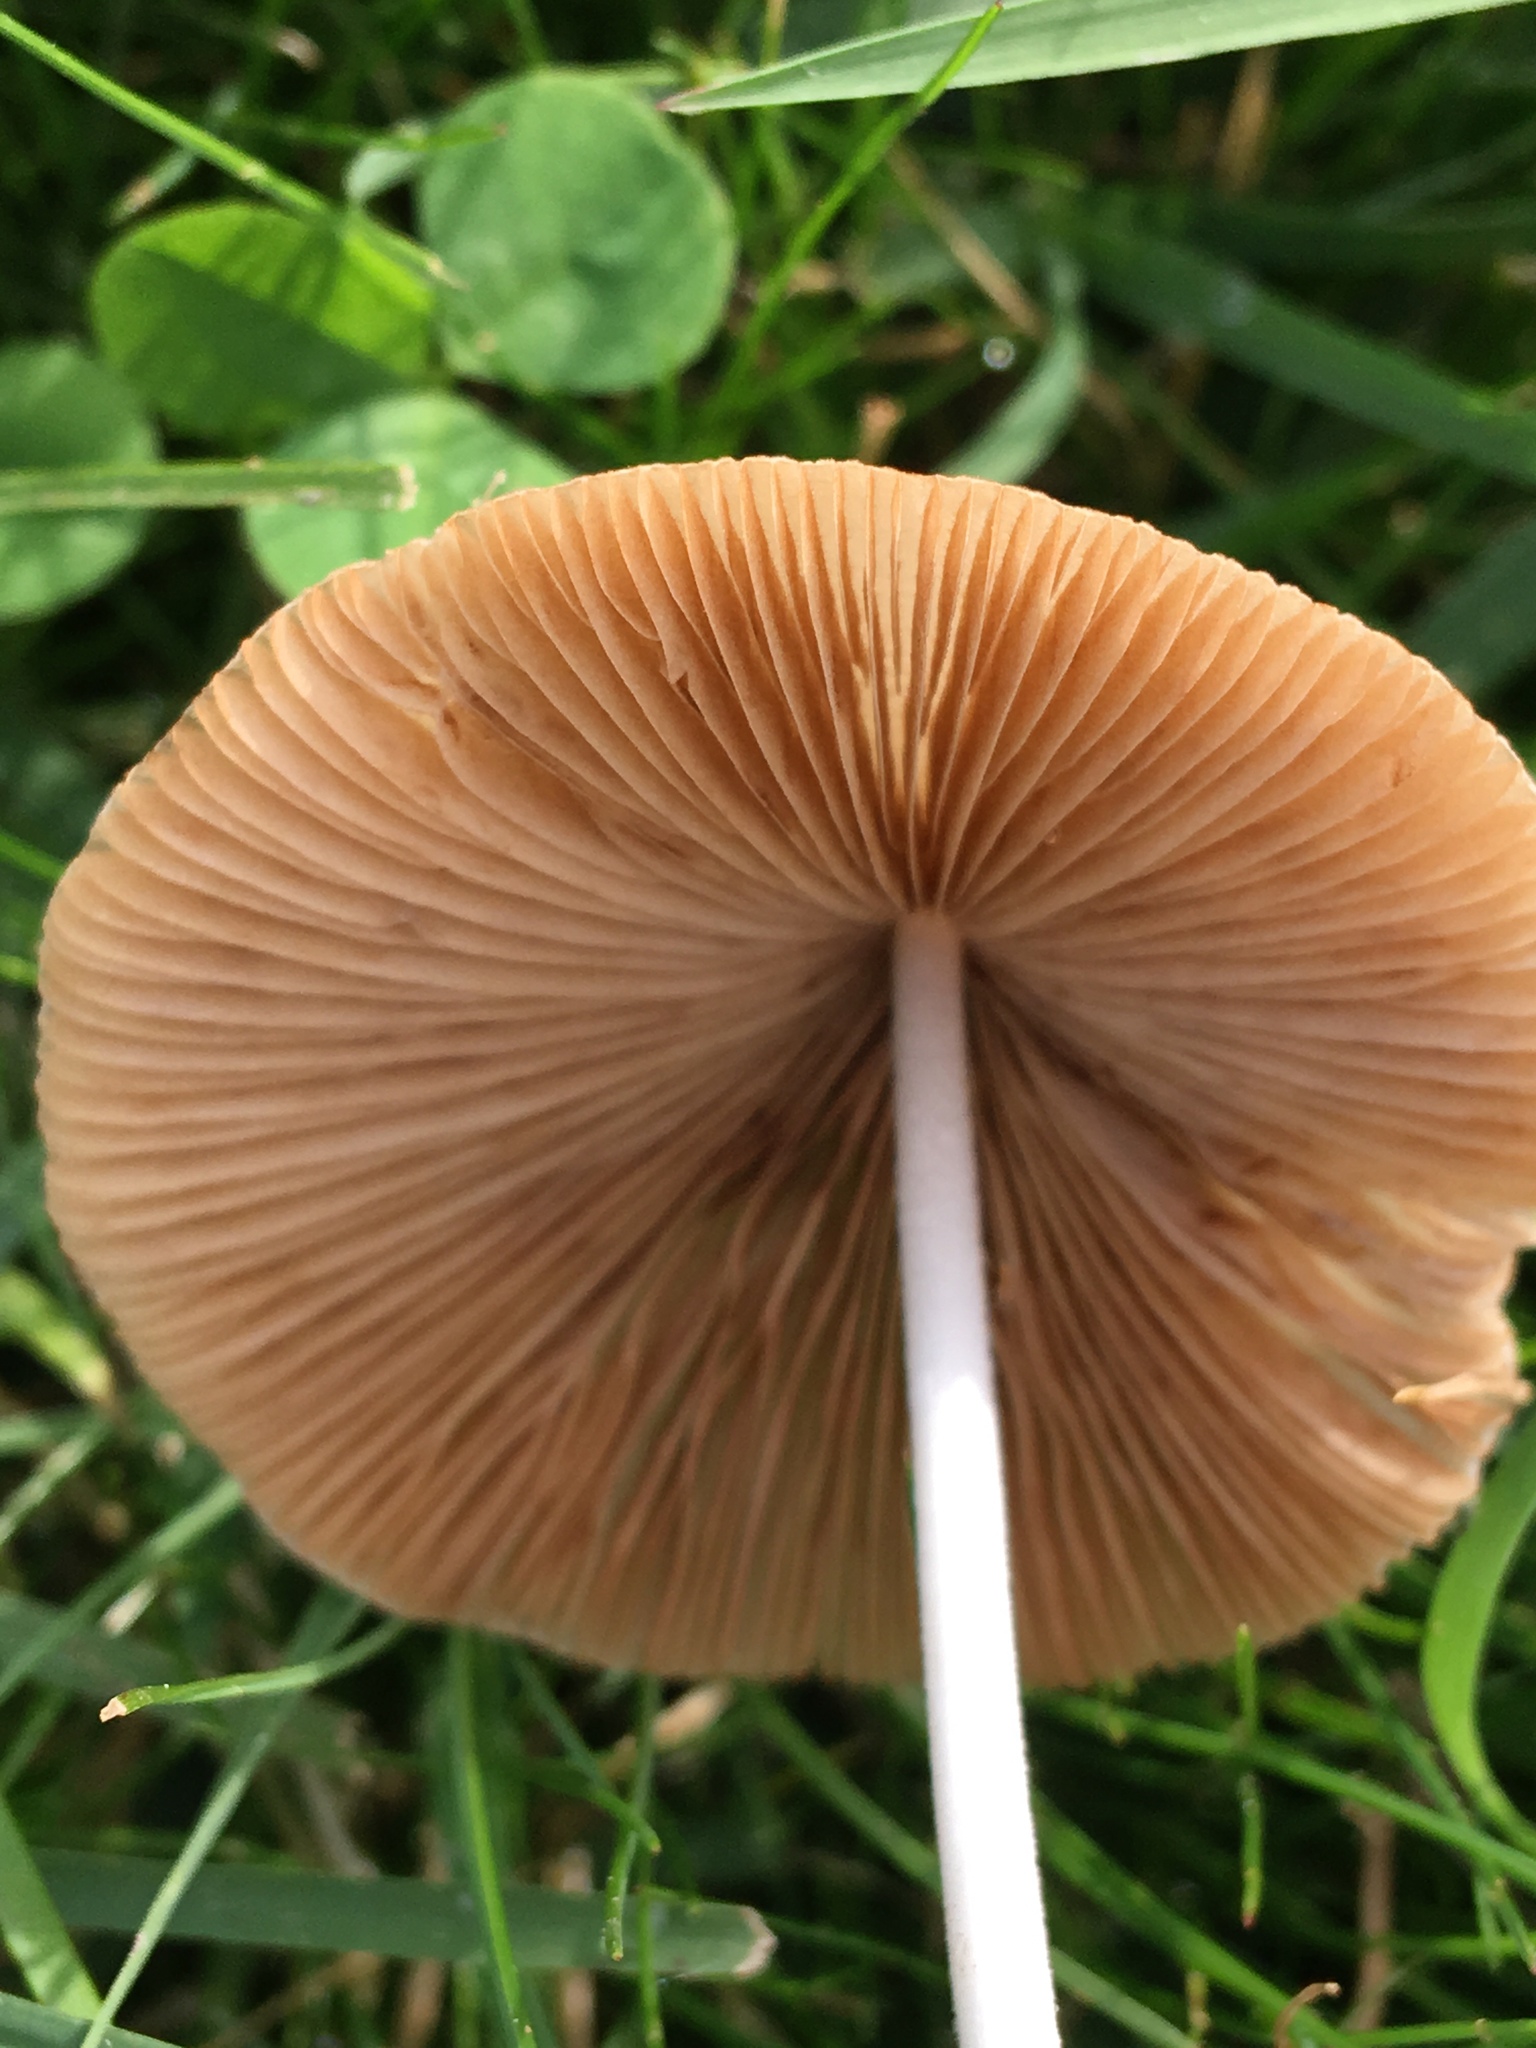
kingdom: Fungi
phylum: Basidiomycota
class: Agaricomycetes
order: Agaricales
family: Bolbitiaceae
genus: Conocybe
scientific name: Conocybe apala
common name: Milky conecap
